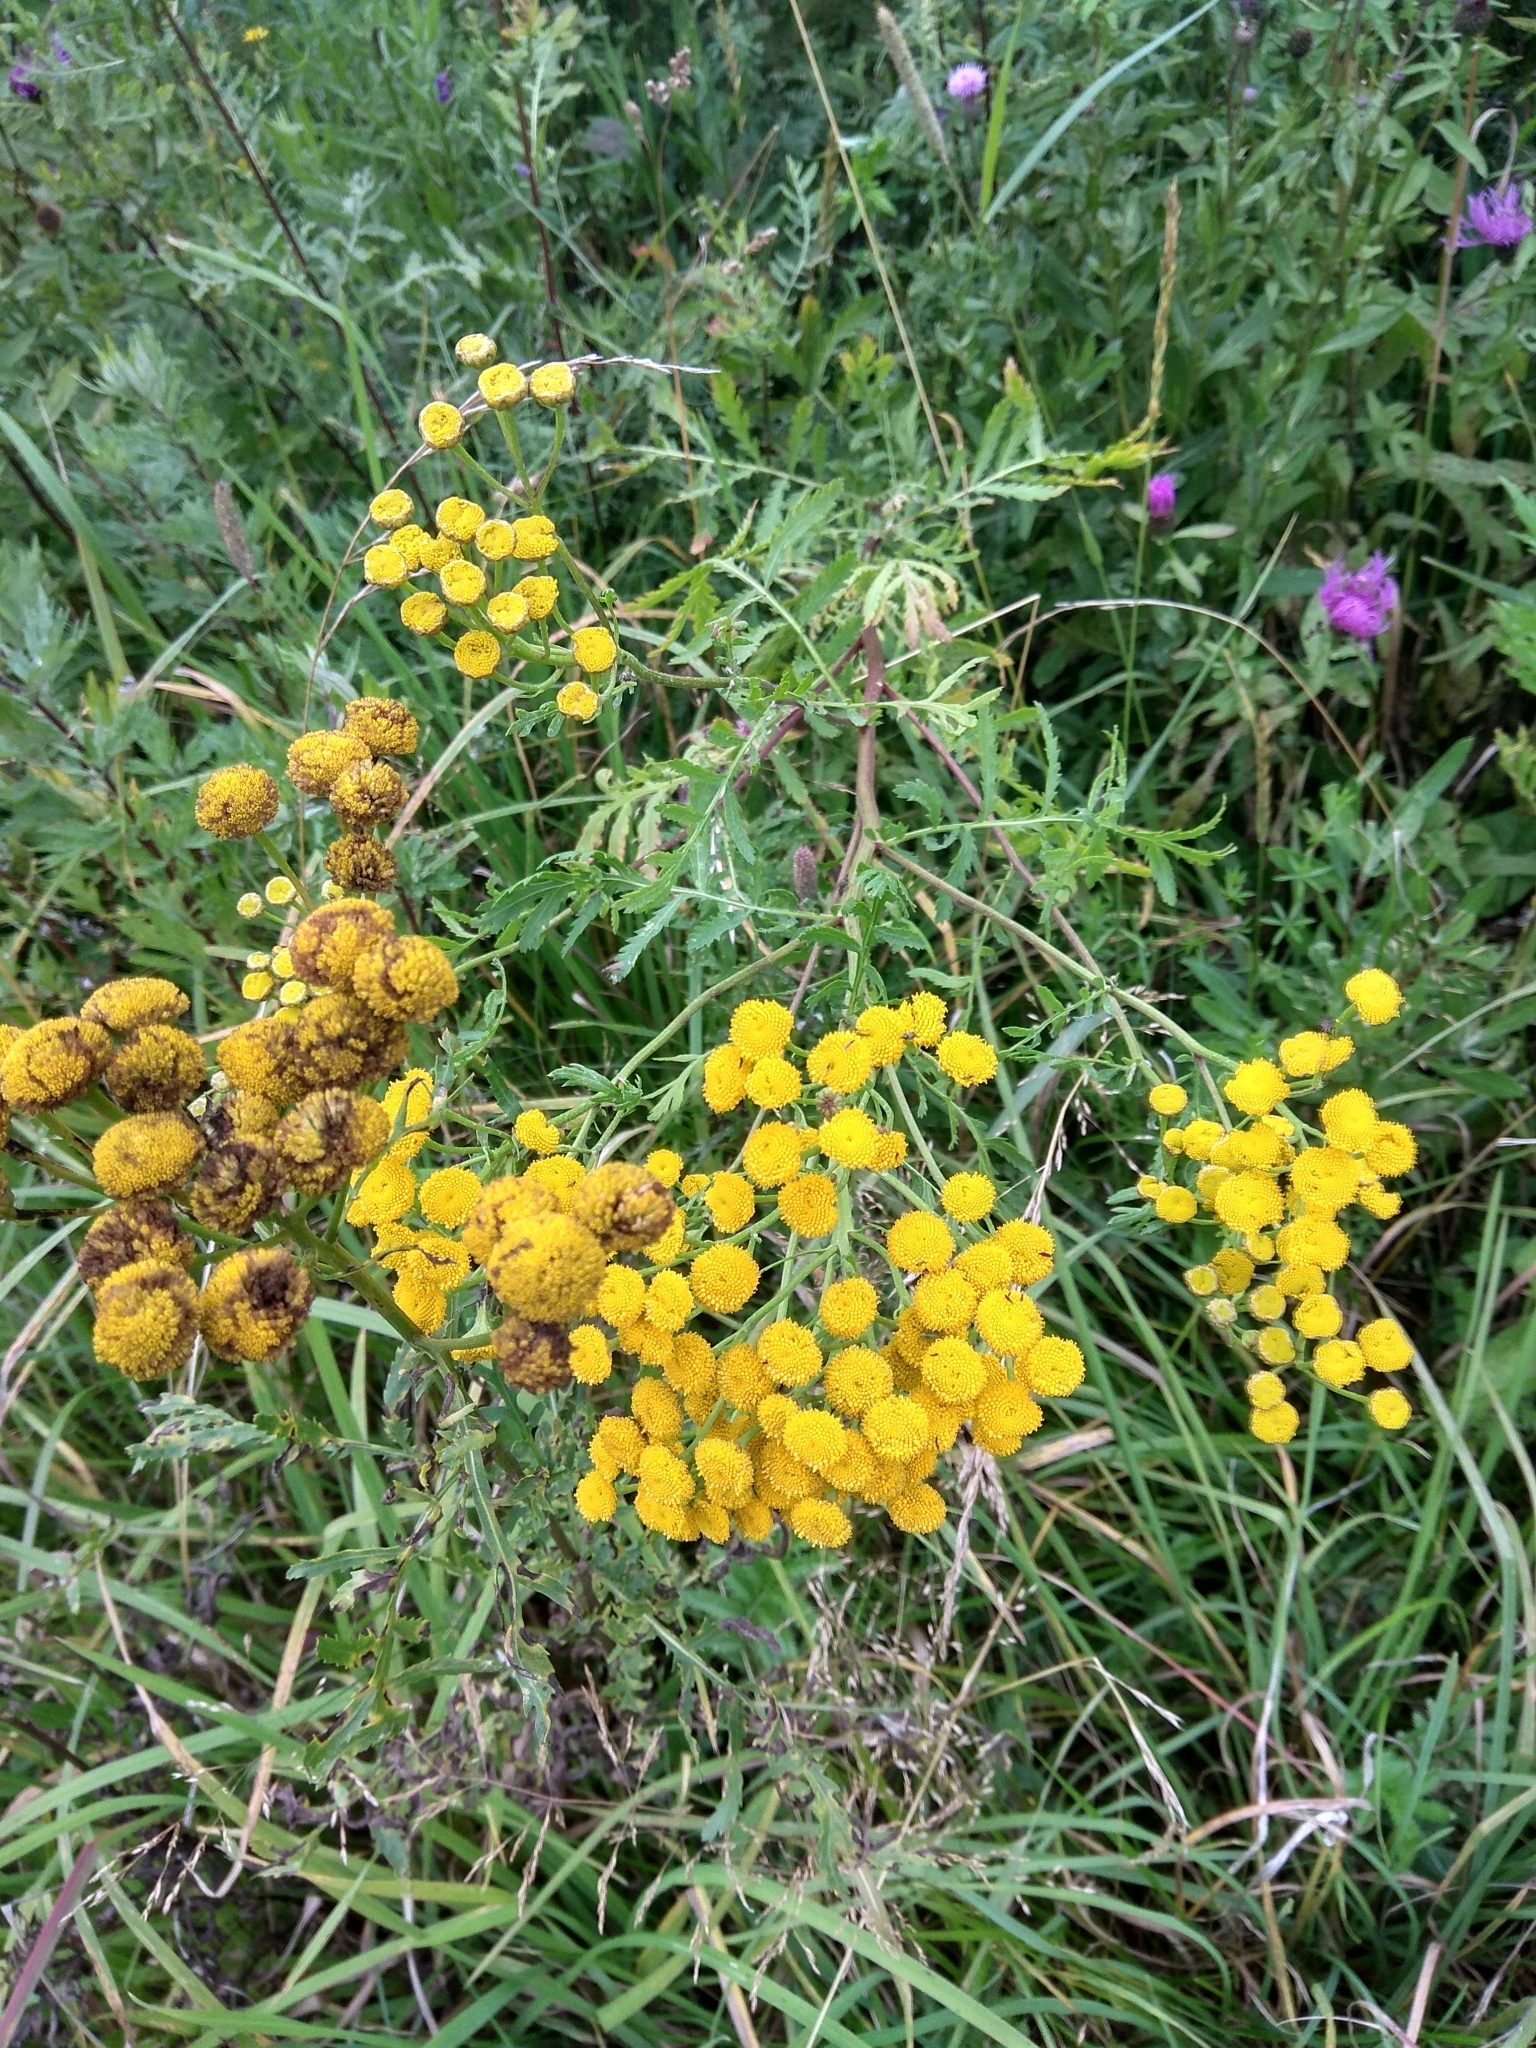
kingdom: Plantae
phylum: Tracheophyta
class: Magnoliopsida
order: Asterales
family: Asteraceae
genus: Tanacetum
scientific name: Tanacetum vulgare
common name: Common tansy
